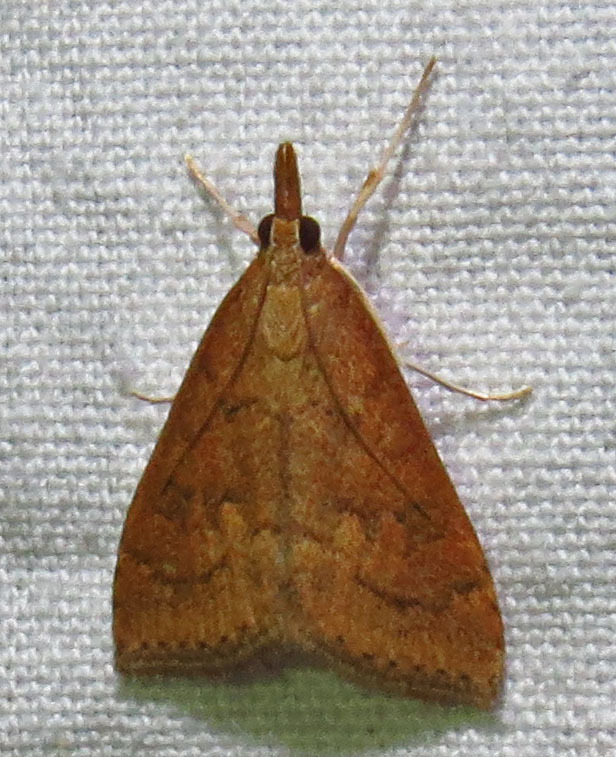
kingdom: Animalia
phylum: Arthropoda
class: Insecta
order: Lepidoptera
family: Crambidae
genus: Udea
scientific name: Udea rubigalis
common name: Celery leaftier moth
